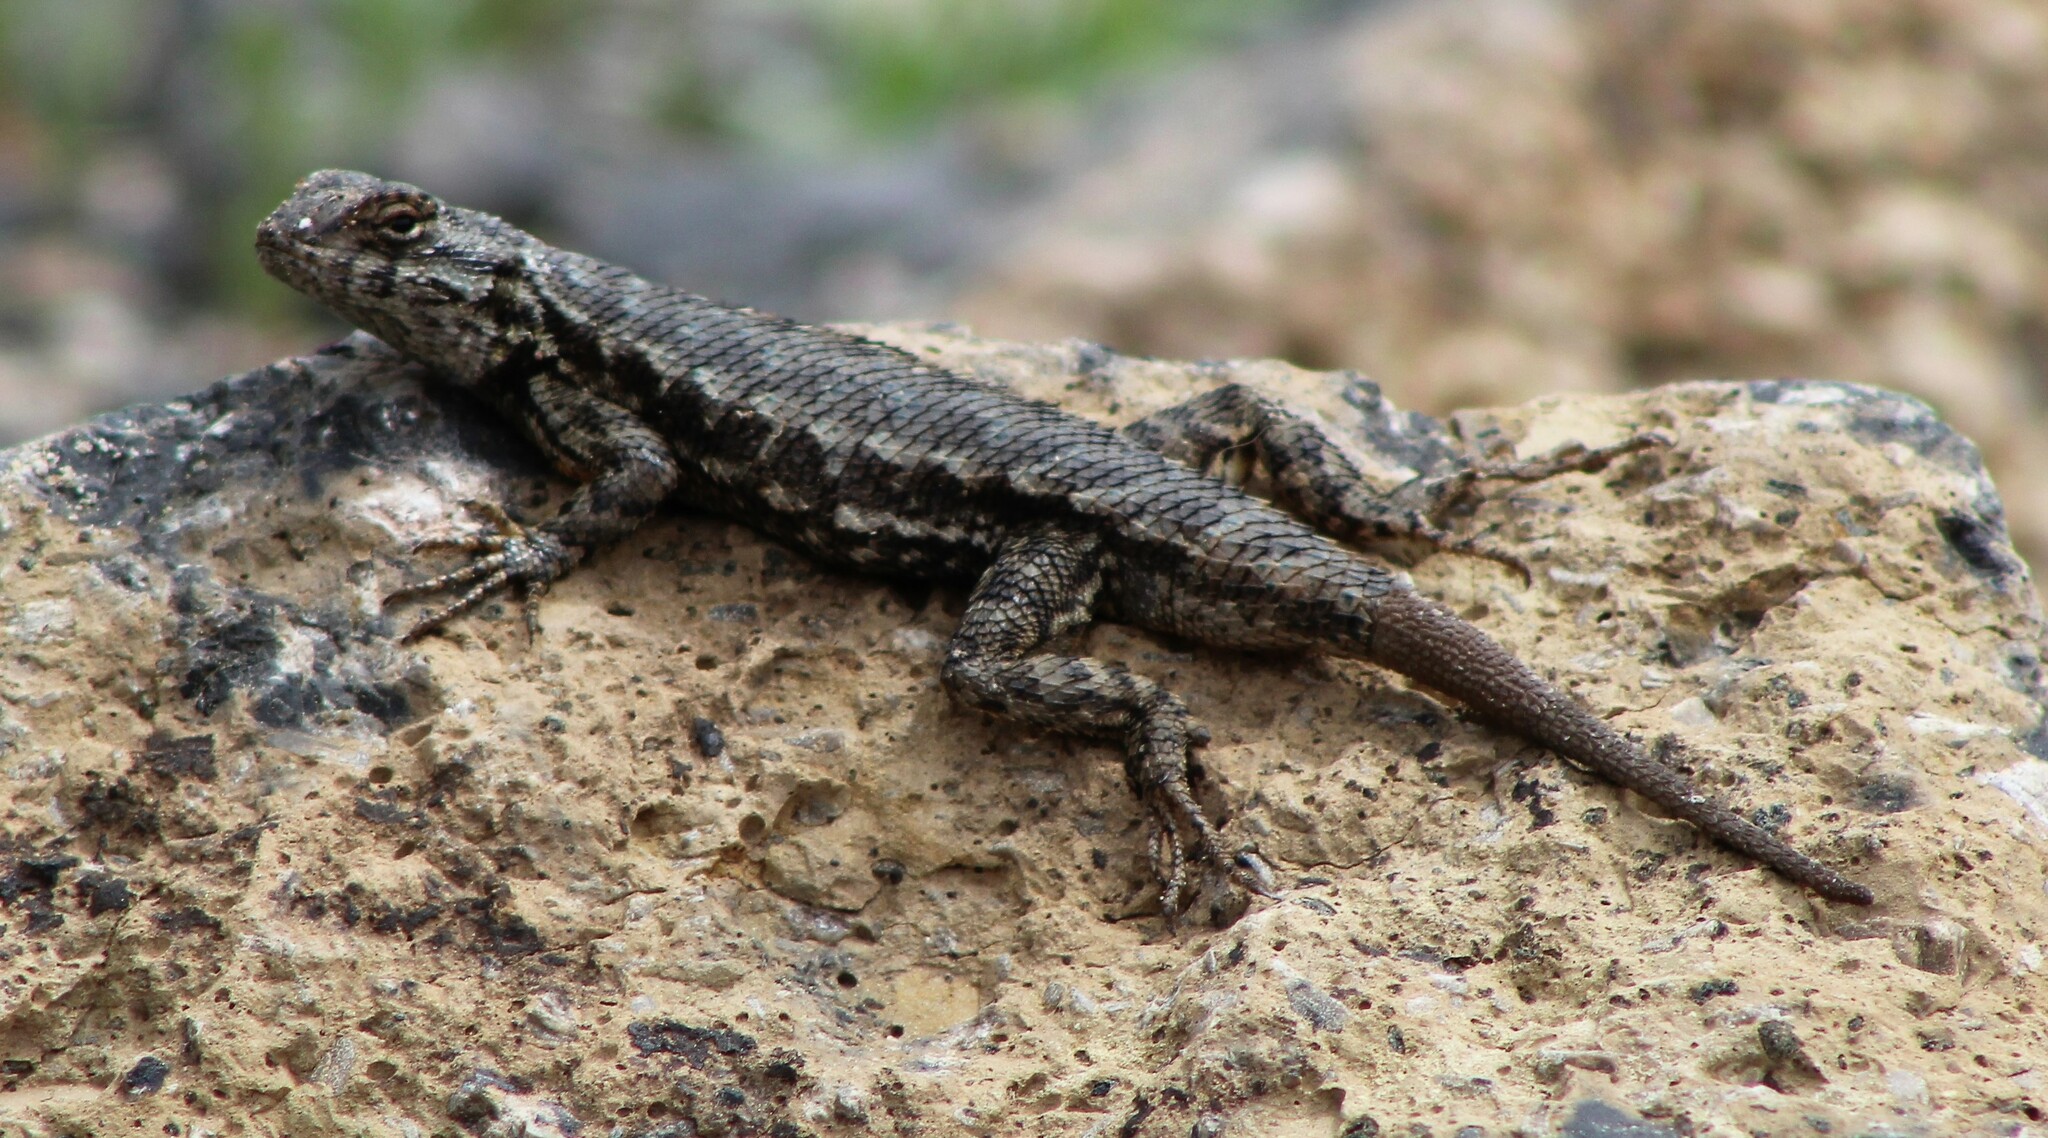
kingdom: Animalia
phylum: Chordata
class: Squamata
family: Phrynosomatidae
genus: Sceloporus
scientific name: Sceloporus occidentalis
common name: Western fence lizard
